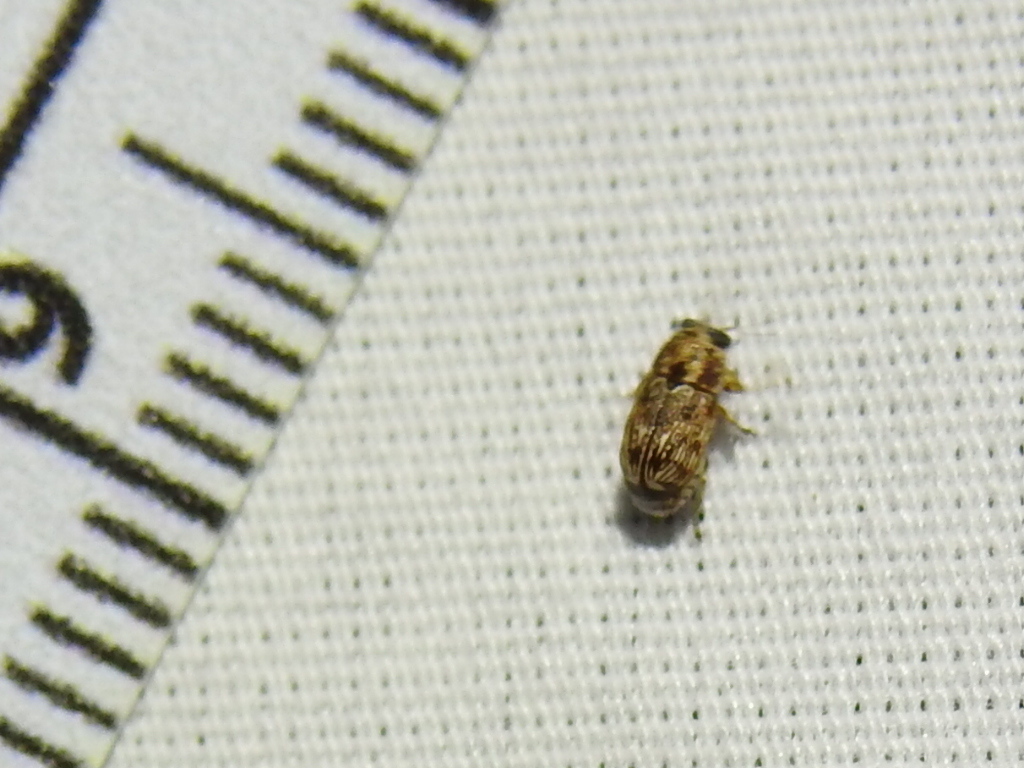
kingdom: Animalia
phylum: Arthropoda
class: Insecta
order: Coleoptera
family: Chrysomelidae
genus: Pachybrachis
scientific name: Pachybrachis texanus
